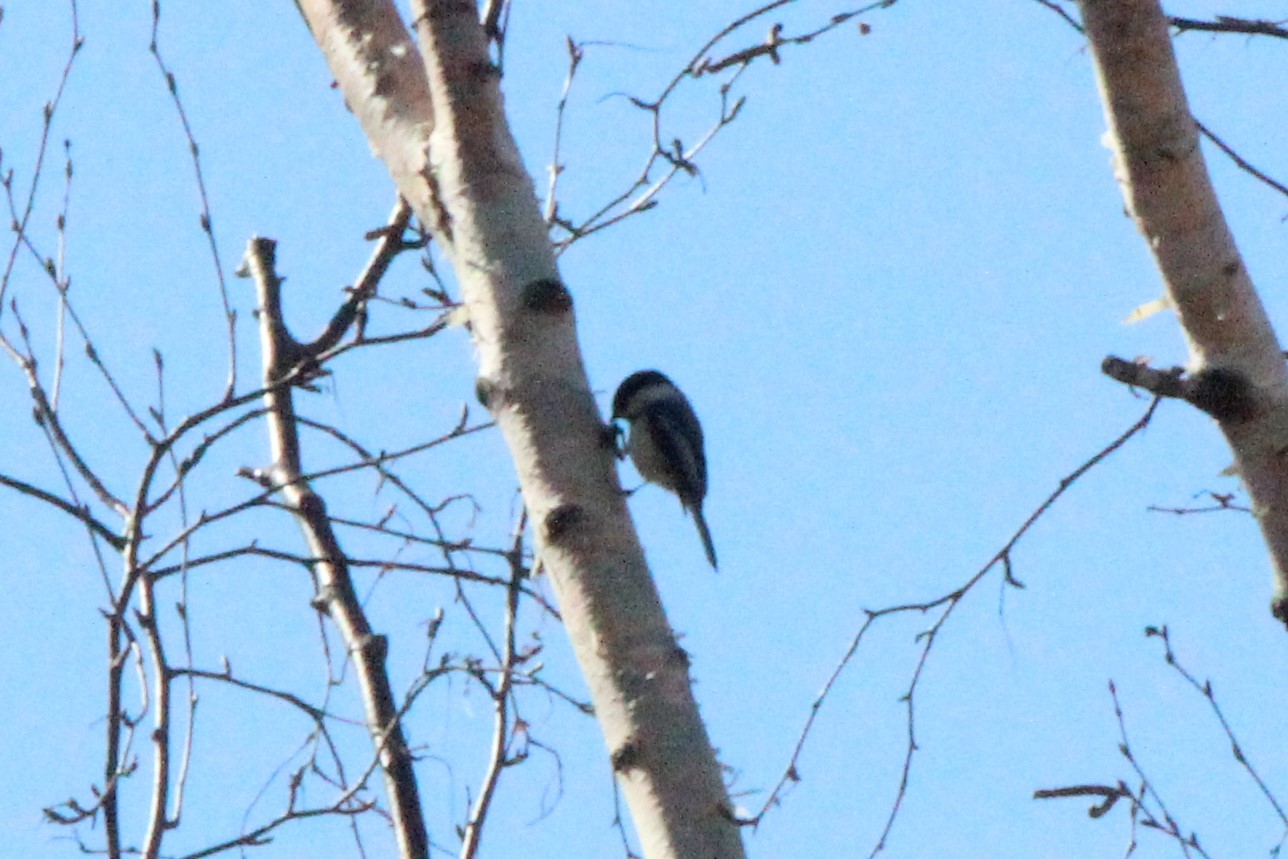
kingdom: Animalia
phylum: Chordata
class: Aves
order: Passeriformes
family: Paridae
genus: Poecile
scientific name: Poecile atricapillus
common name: Black-capped chickadee
